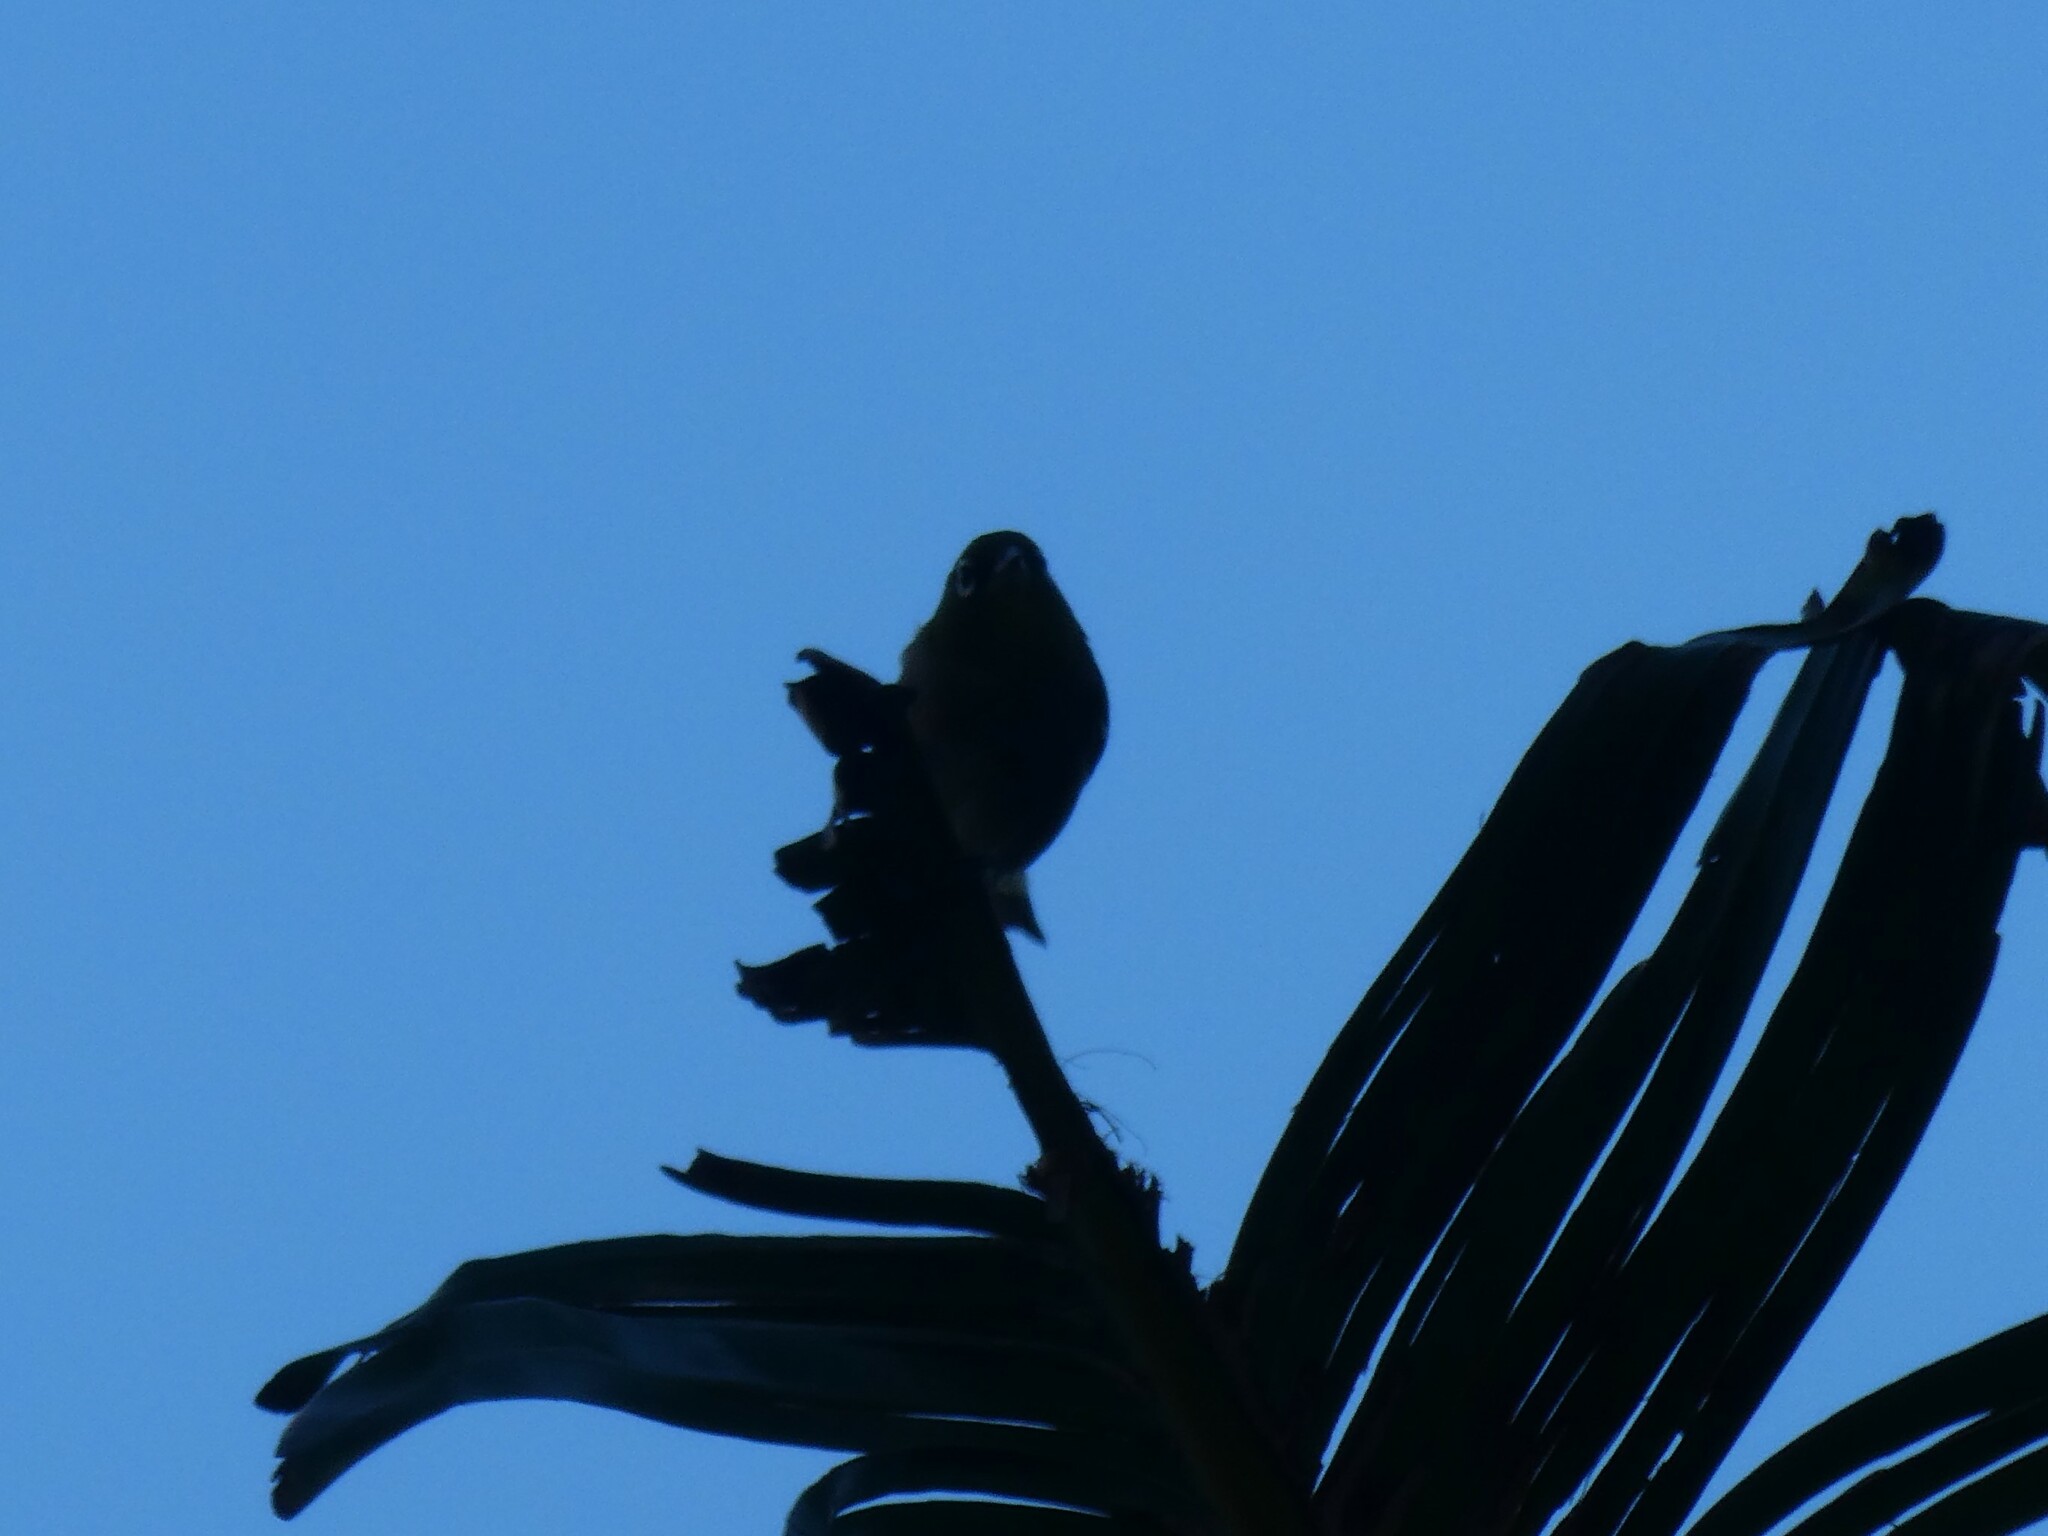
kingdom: Animalia
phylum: Chordata
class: Aves
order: Passeriformes
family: Zosteropidae
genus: Zosterops
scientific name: Zosterops japonicus
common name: Japanese white-eye
